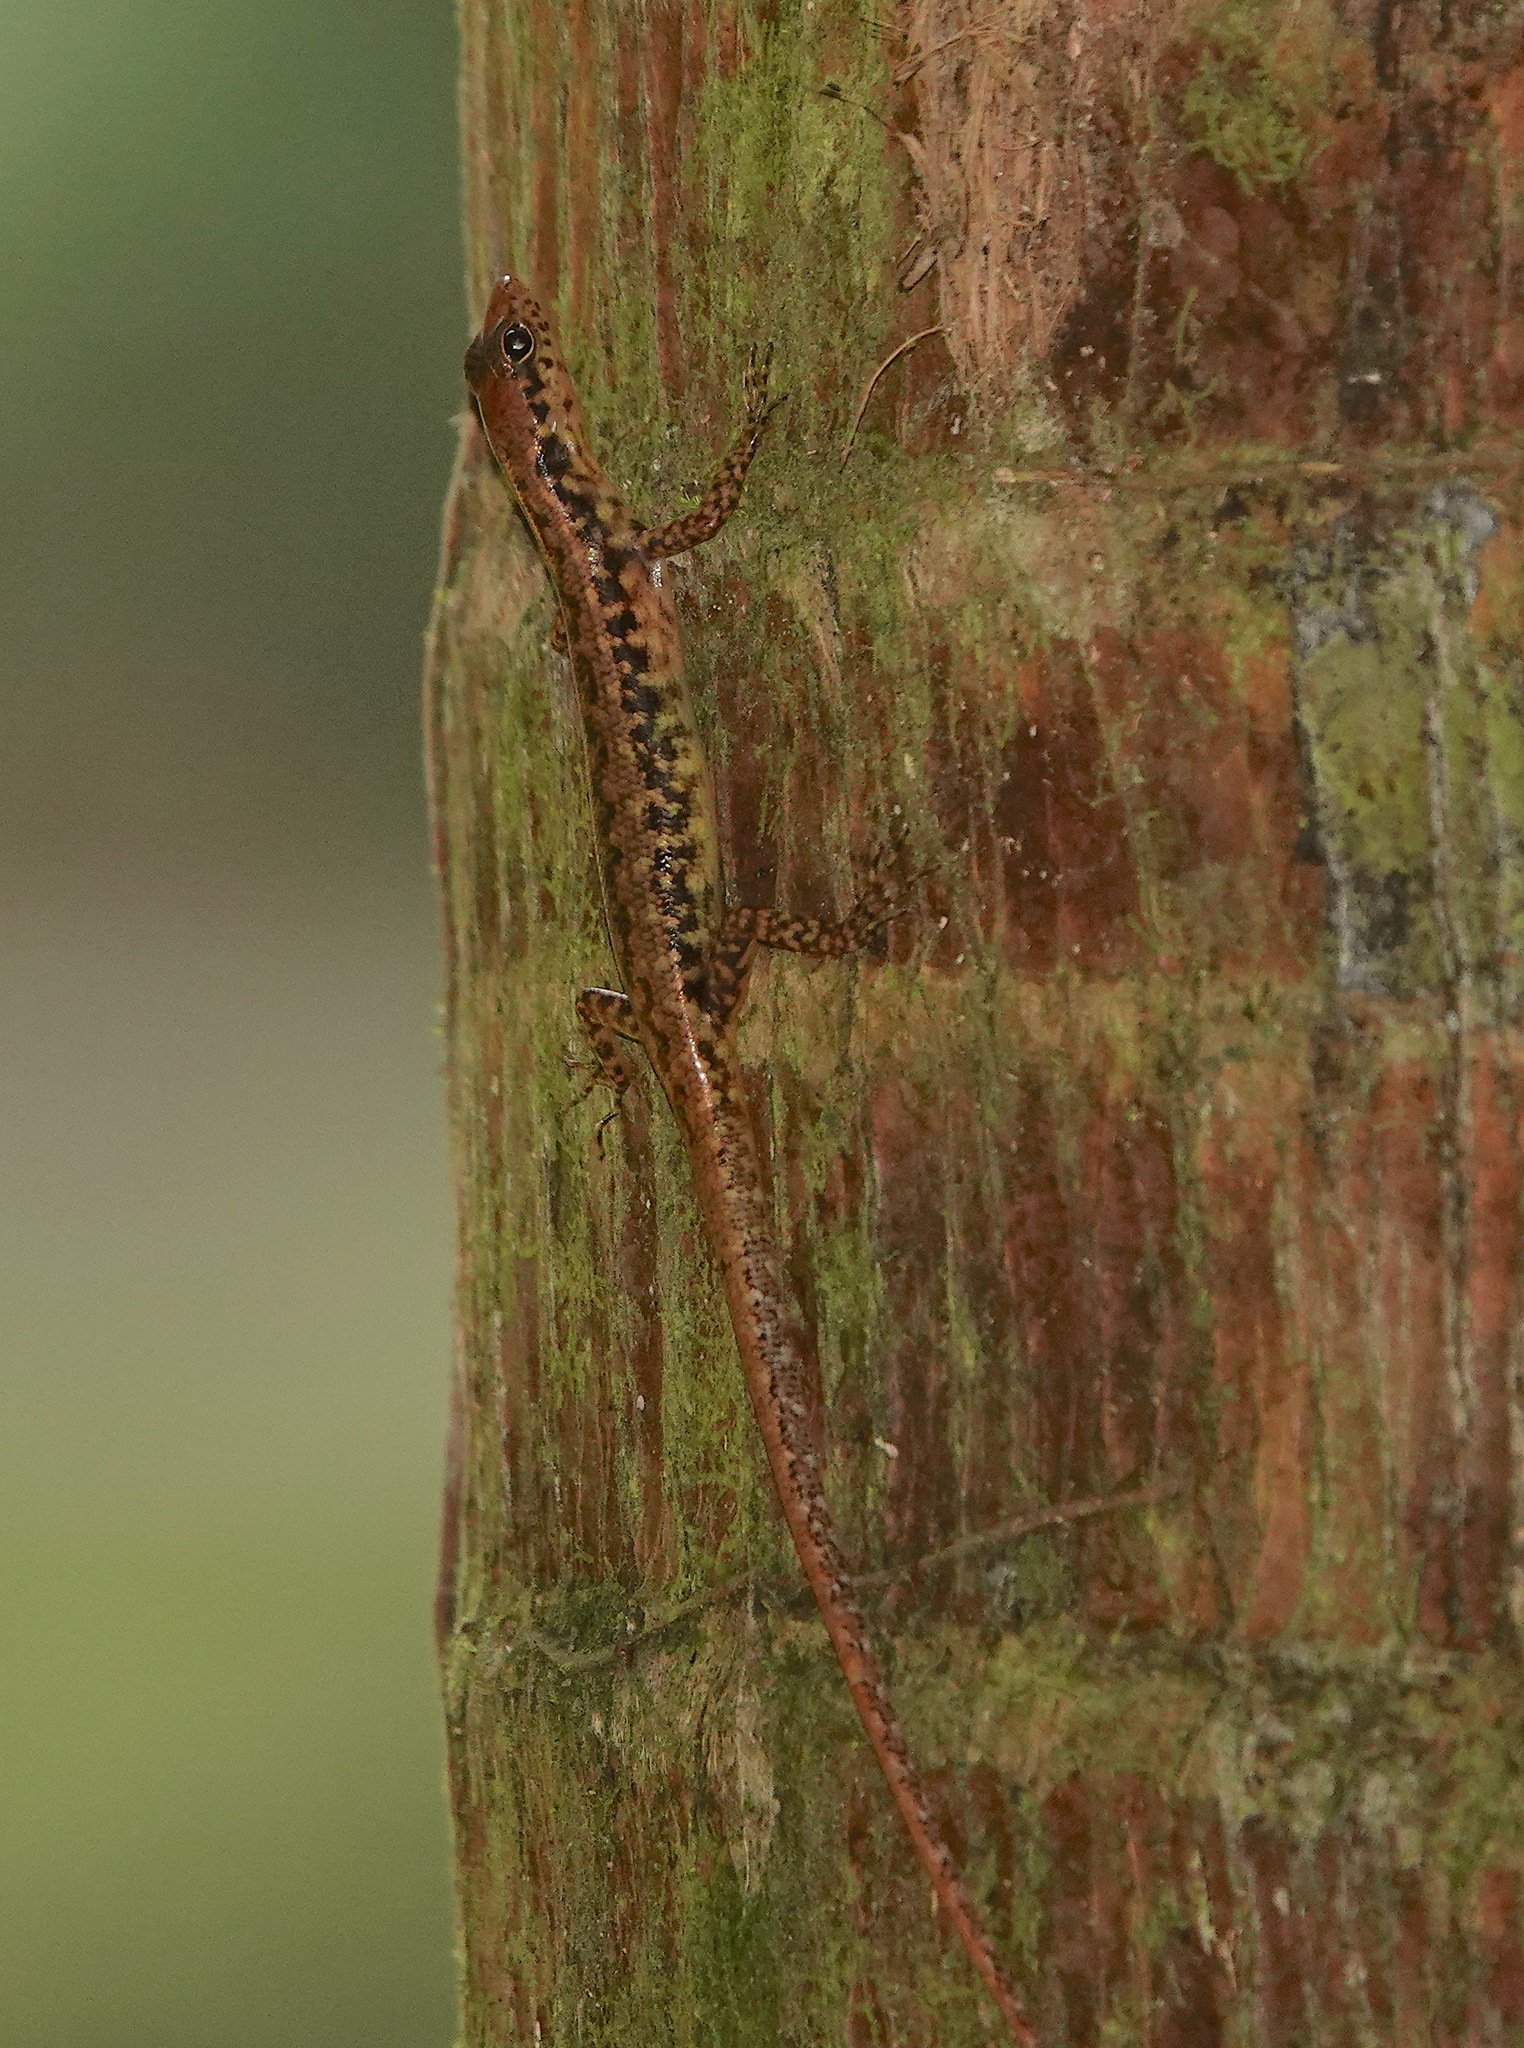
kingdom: Animalia
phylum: Chordata
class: Squamata
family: Scincidae
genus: Sphenomorphus
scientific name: Sphenomorphus scotophilus
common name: Selangor forest skink
